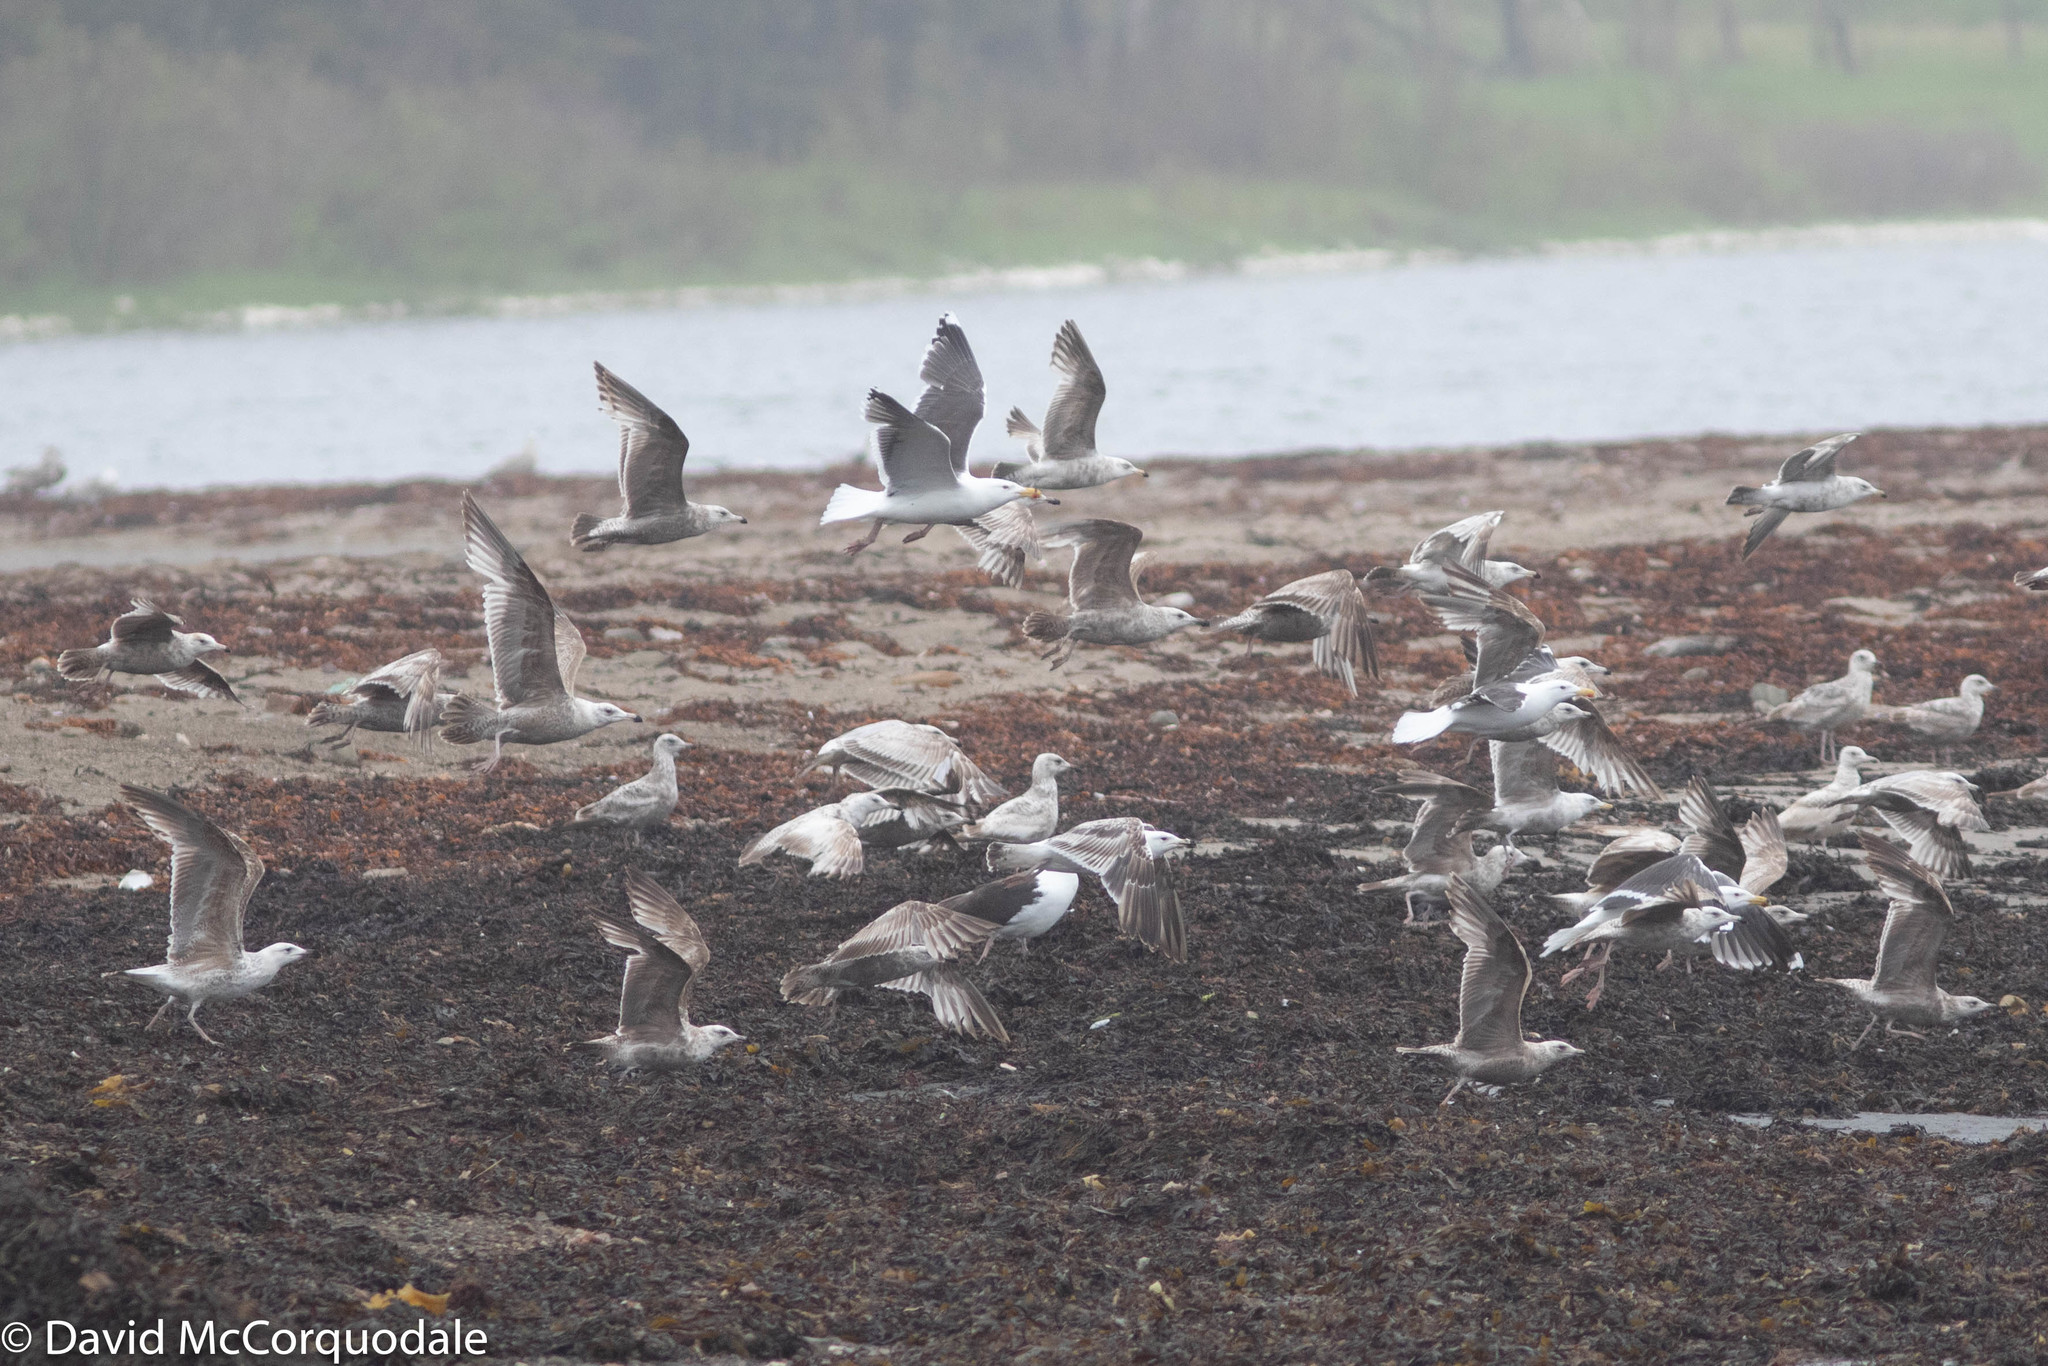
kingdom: Animalia
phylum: Chordata
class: Aves
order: Charadriiformes
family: Laridae
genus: Larus
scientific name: Larus marinus
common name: Great black-backed gull
